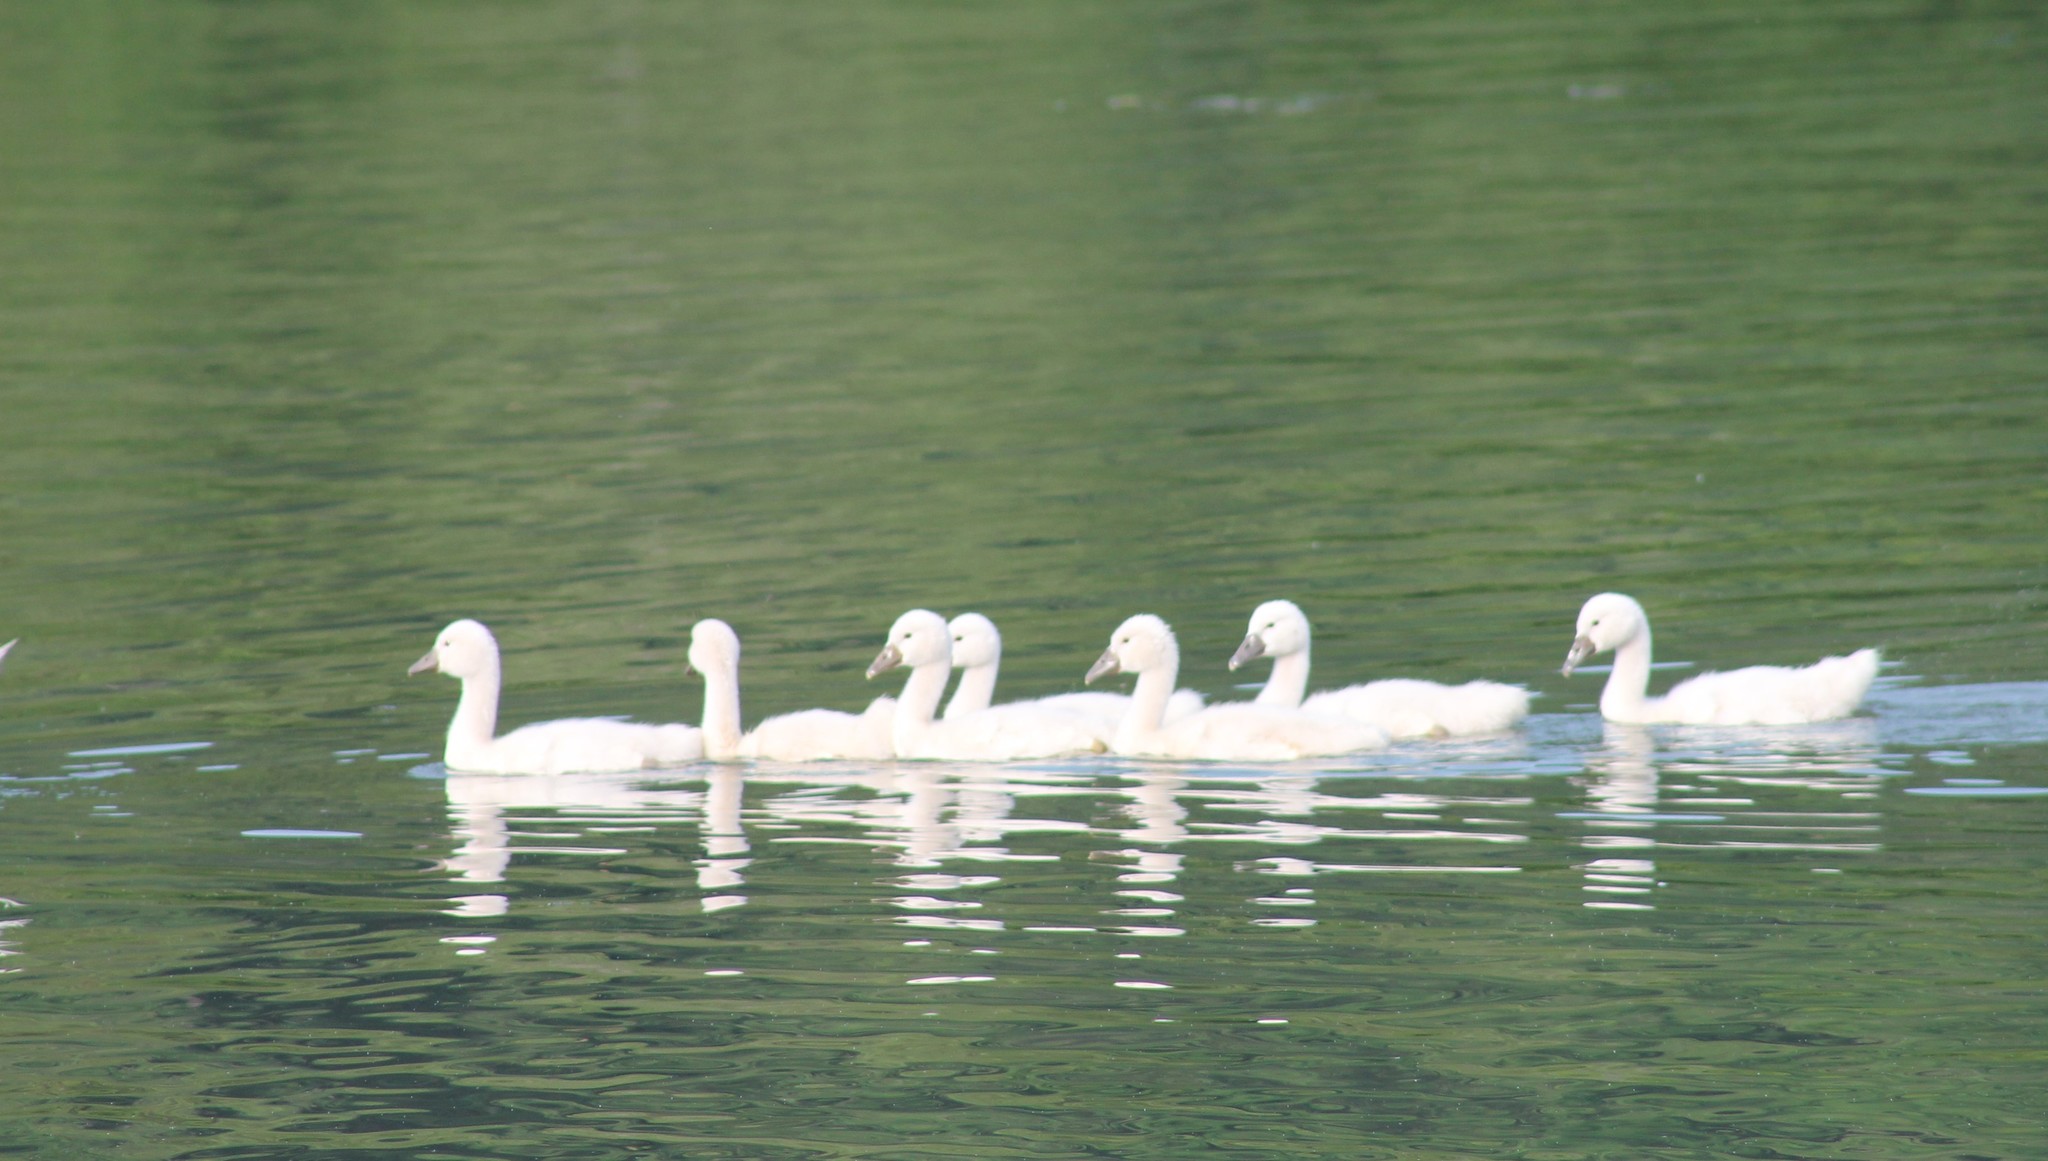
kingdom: Animalia
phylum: Chordata
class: Aves
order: Anseriformes
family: Anatidae
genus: Cygnus
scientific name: Cygnus olor
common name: Mute swan
